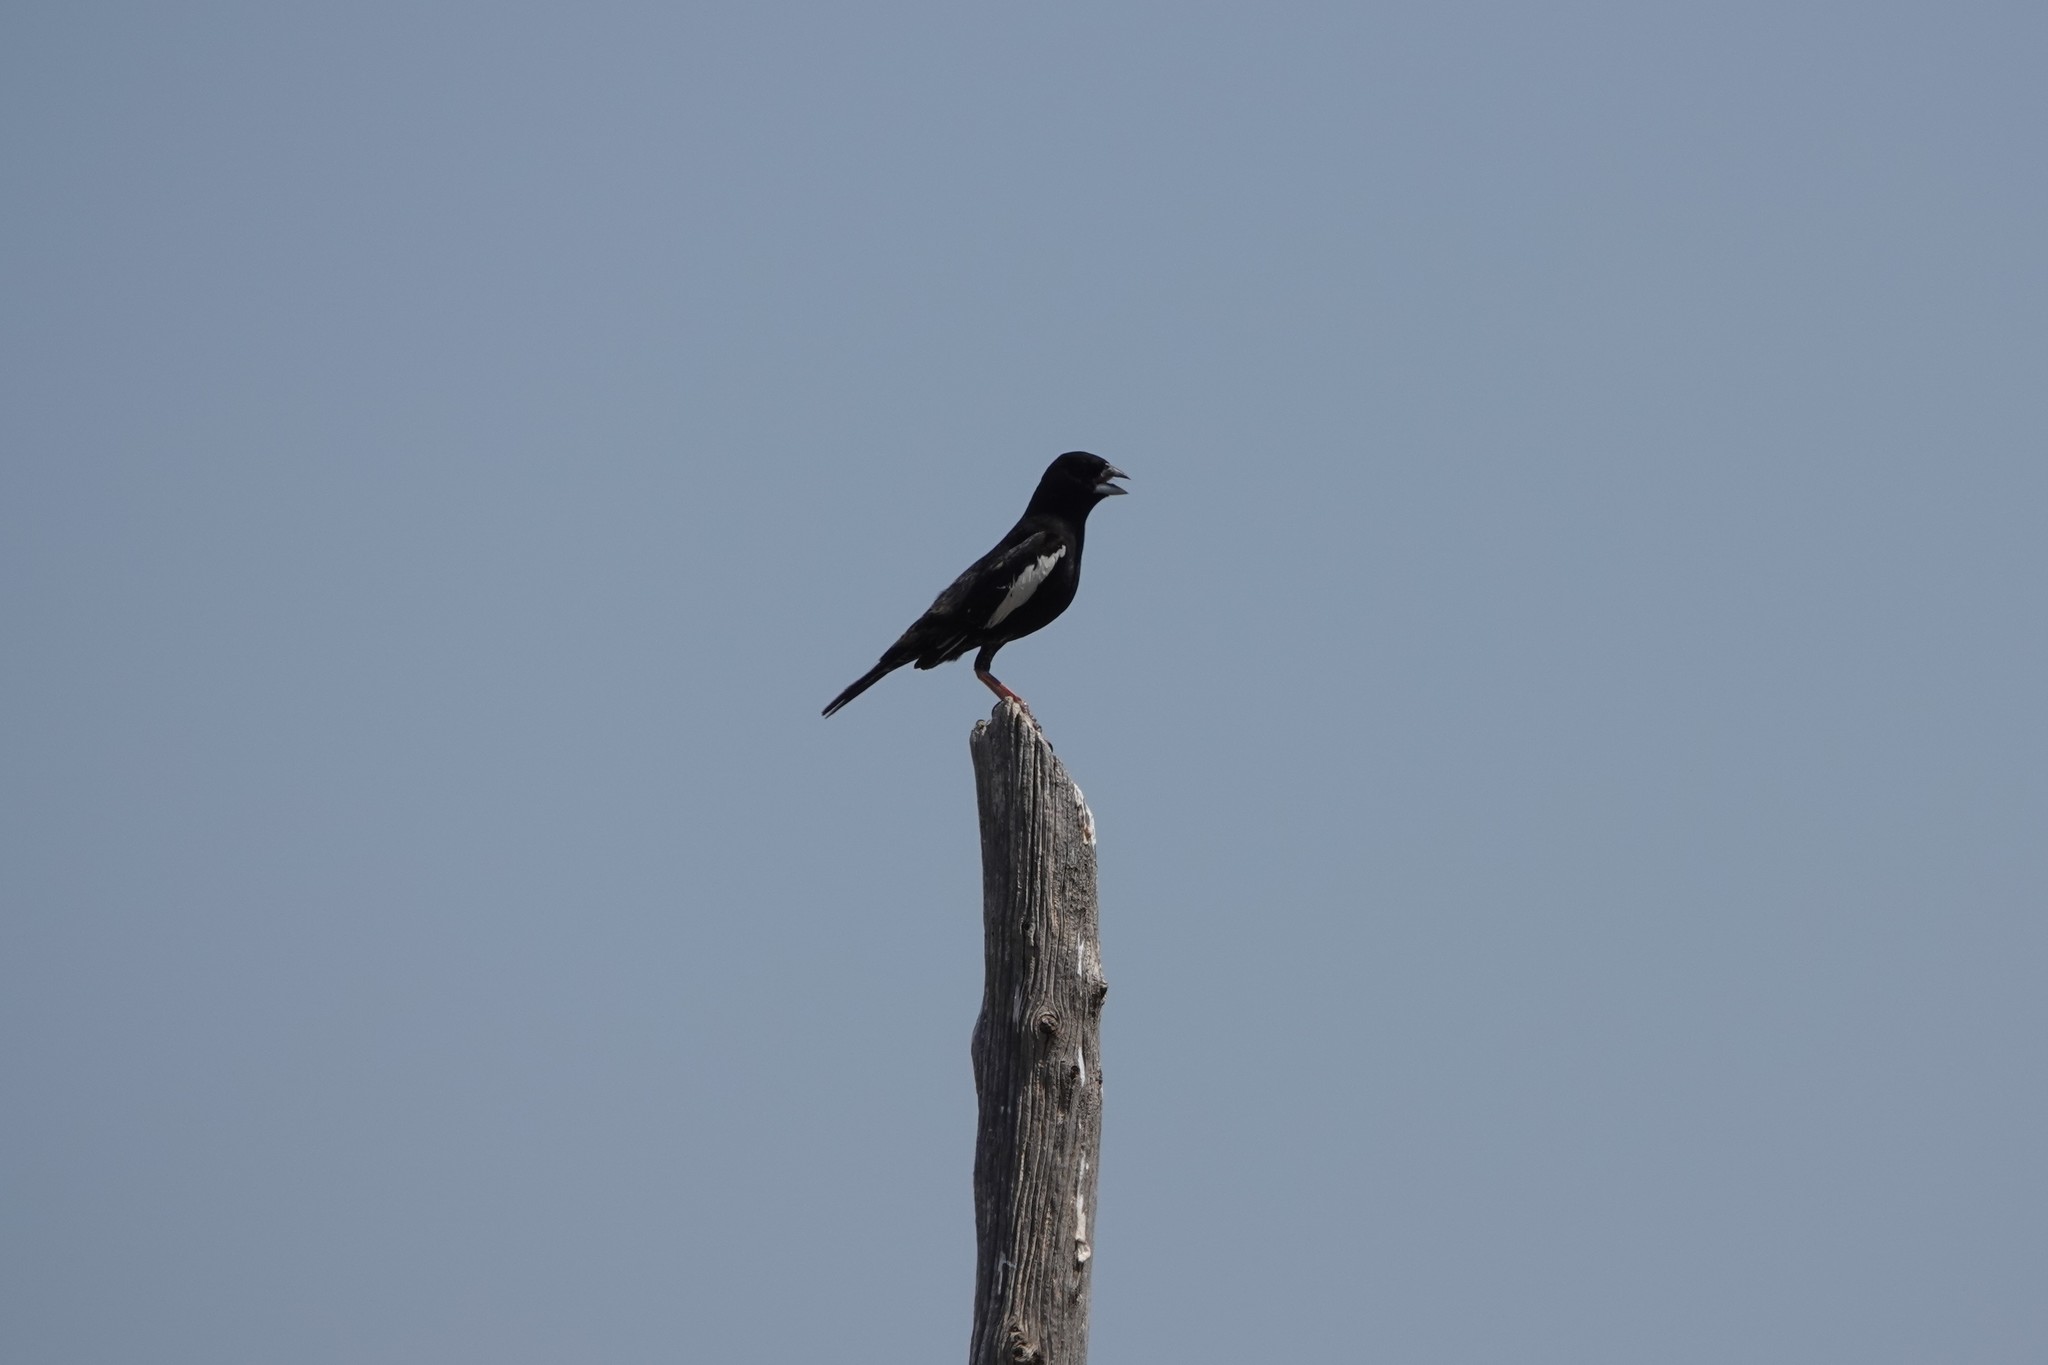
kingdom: Animalia
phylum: Chordata
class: Aves
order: Passeriformes
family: Passerellidae
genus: Calamospiza
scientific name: Calamospiza melanocorys
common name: Lark bunting
